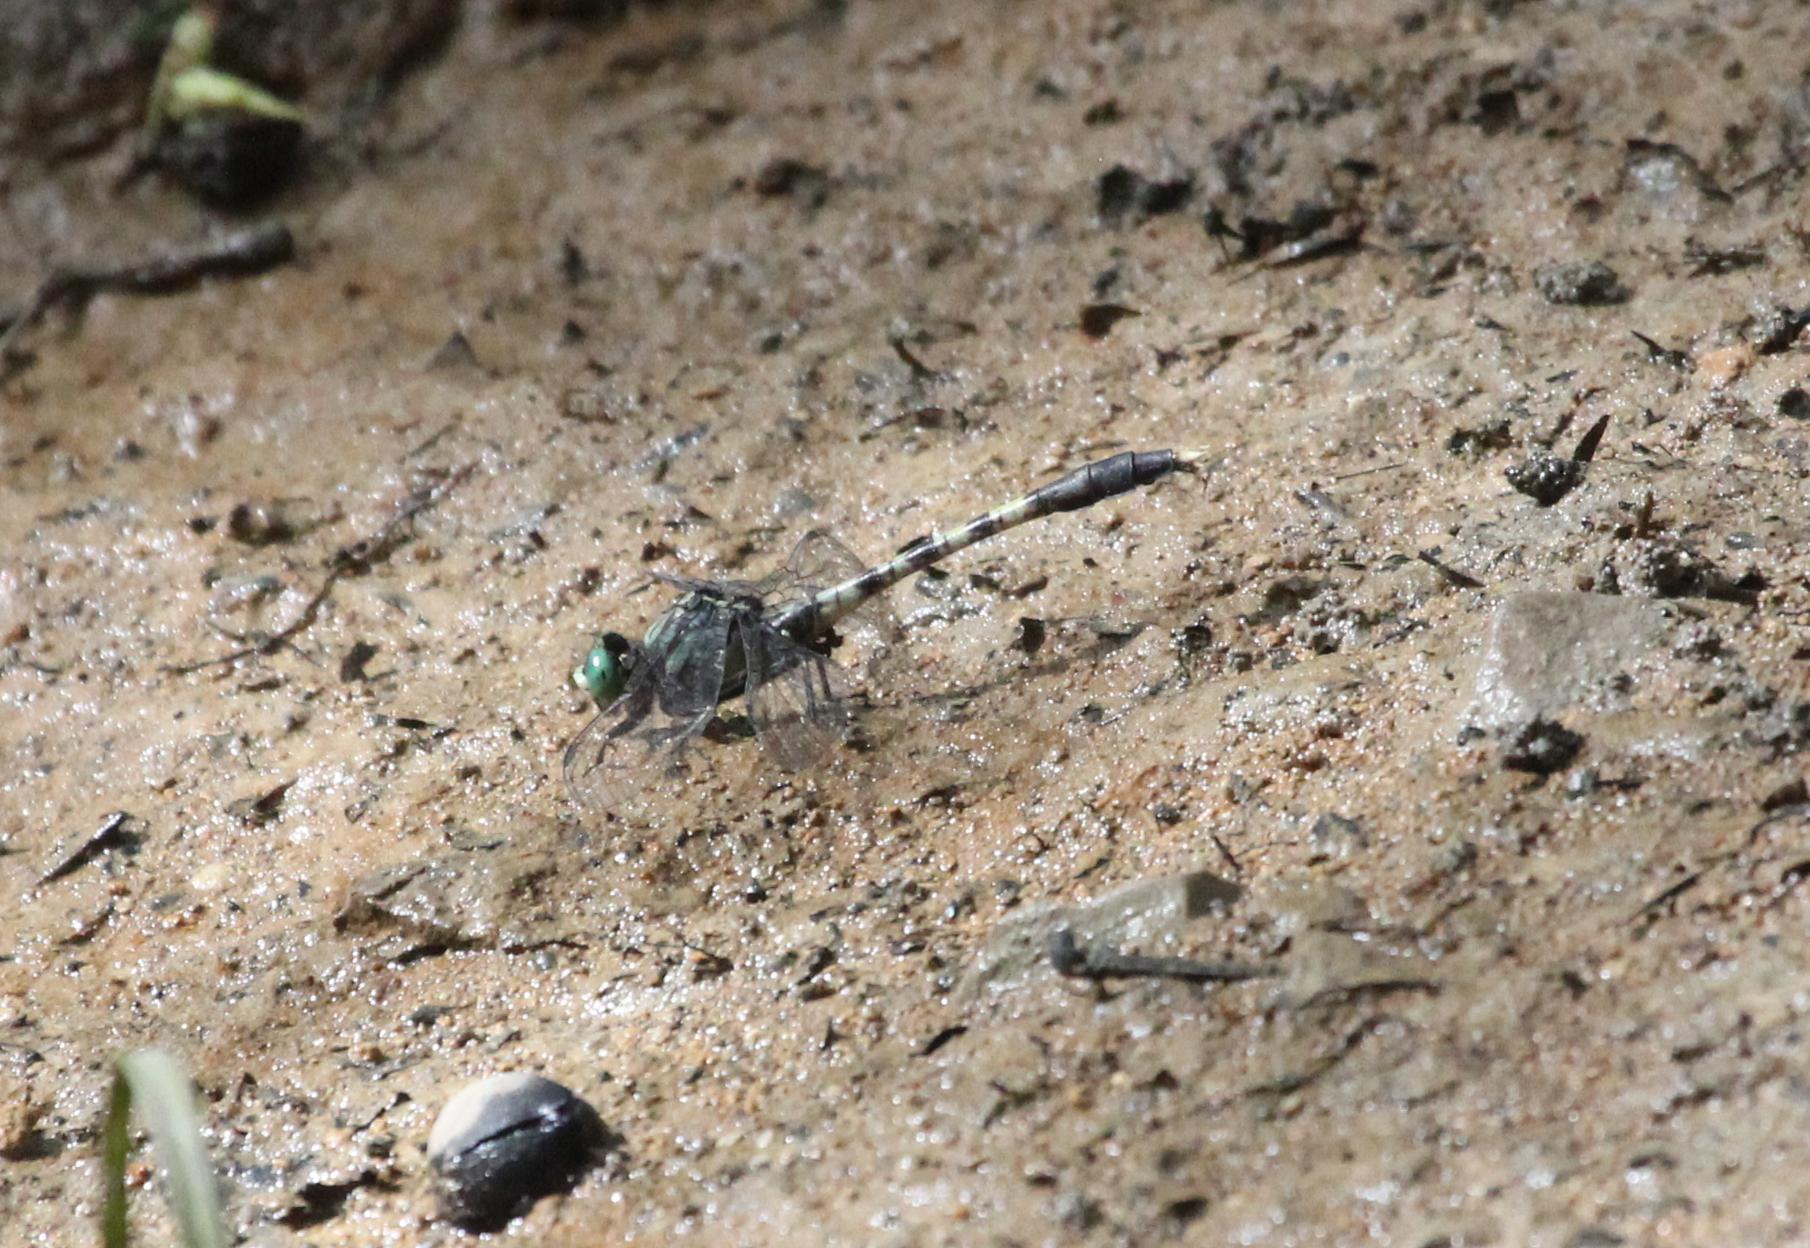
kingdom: Animalia
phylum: Arthropoda
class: Insecta
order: Odonata
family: Gomphidae
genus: Arigomphus
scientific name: Arigomphus maxwelli
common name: Bayou clubtail
